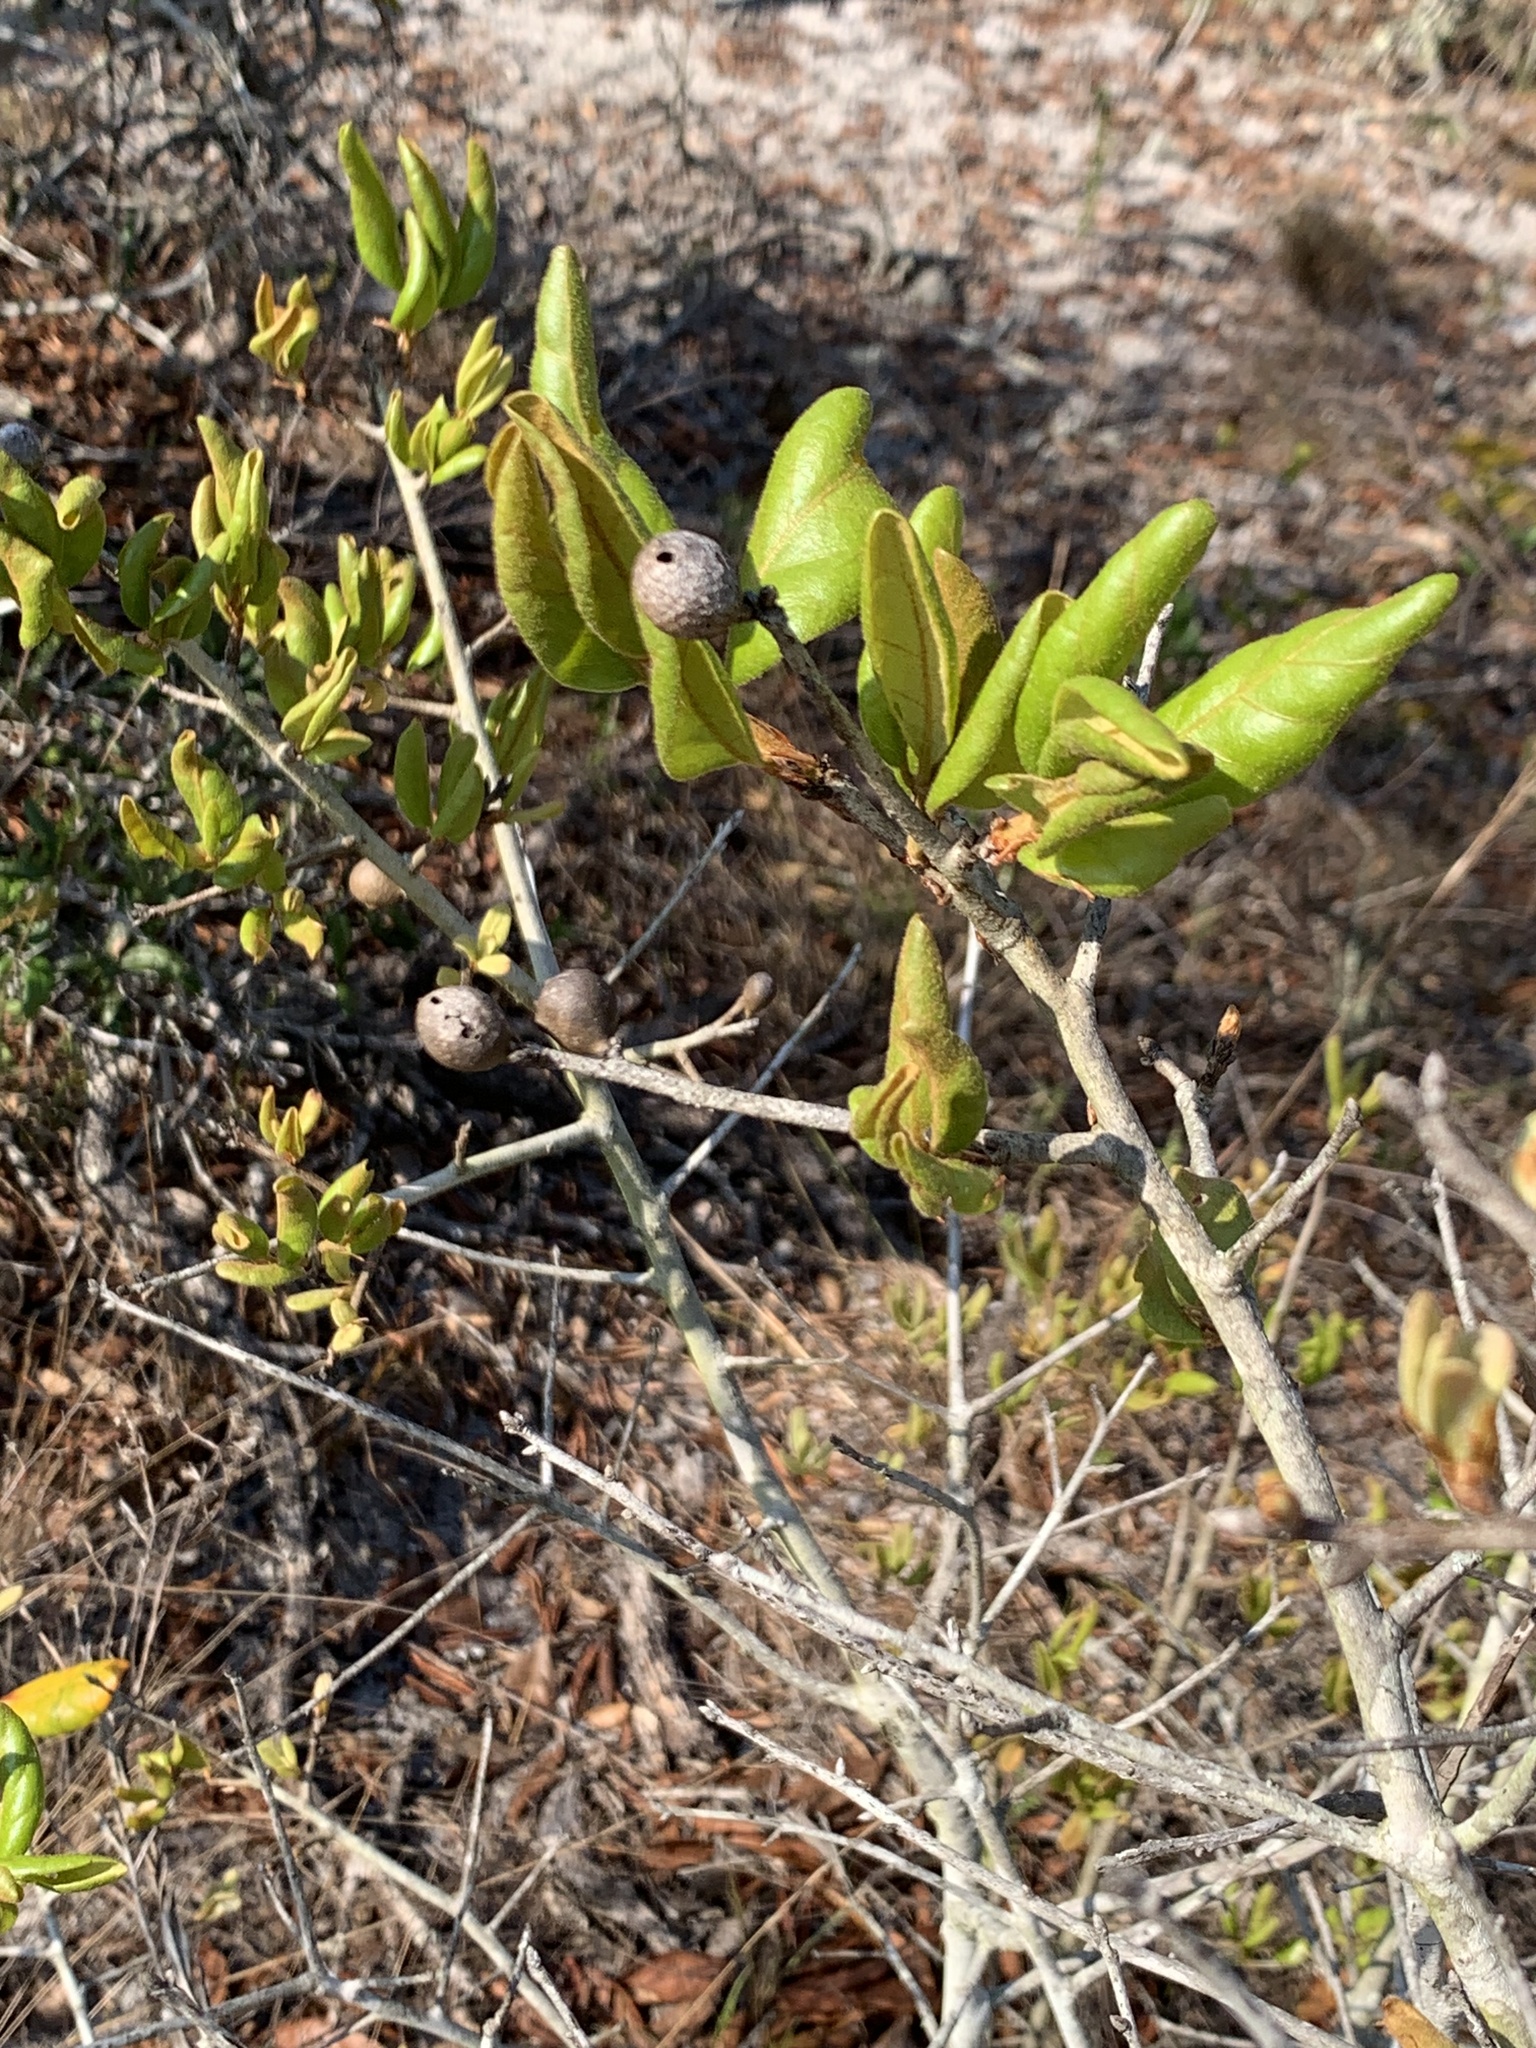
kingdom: Plantae
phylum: Tracheophyta
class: Magnoliopsida
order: Fagales
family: Fagaceae
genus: Quercus
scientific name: Quercus inopina
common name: Sandhill oak
